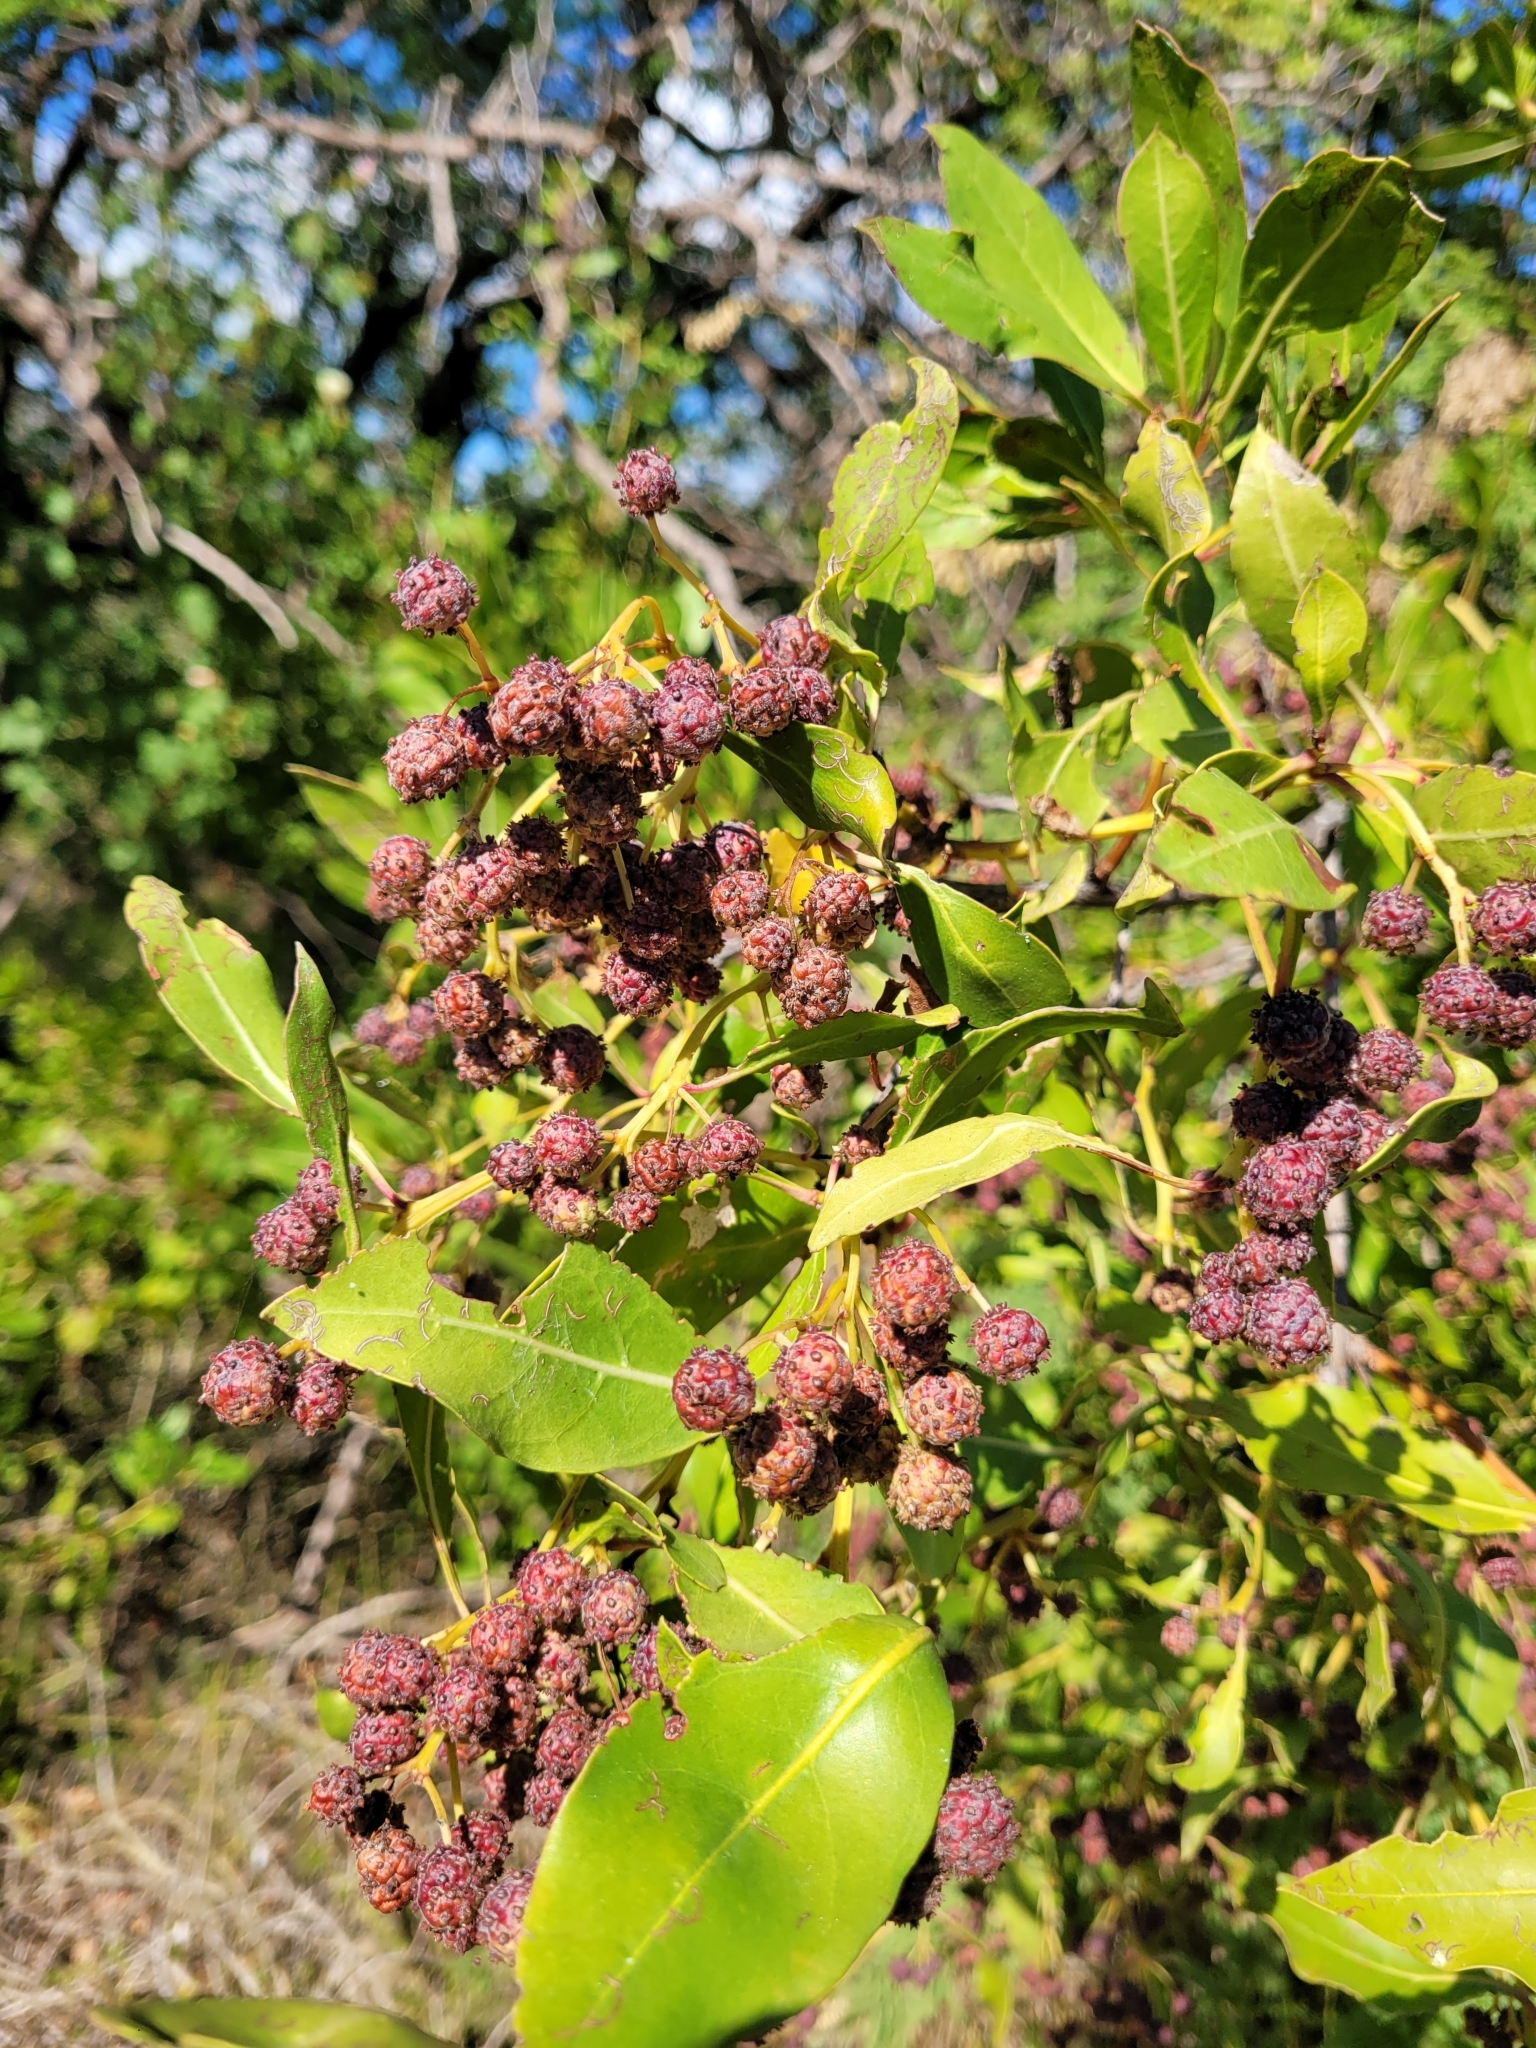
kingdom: Plantae
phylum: Tracheophyta
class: Magnoliopsida
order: Myrtales
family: Combretaceae
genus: Conocarpus
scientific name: Conocarpus erectus
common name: Button mangrove
